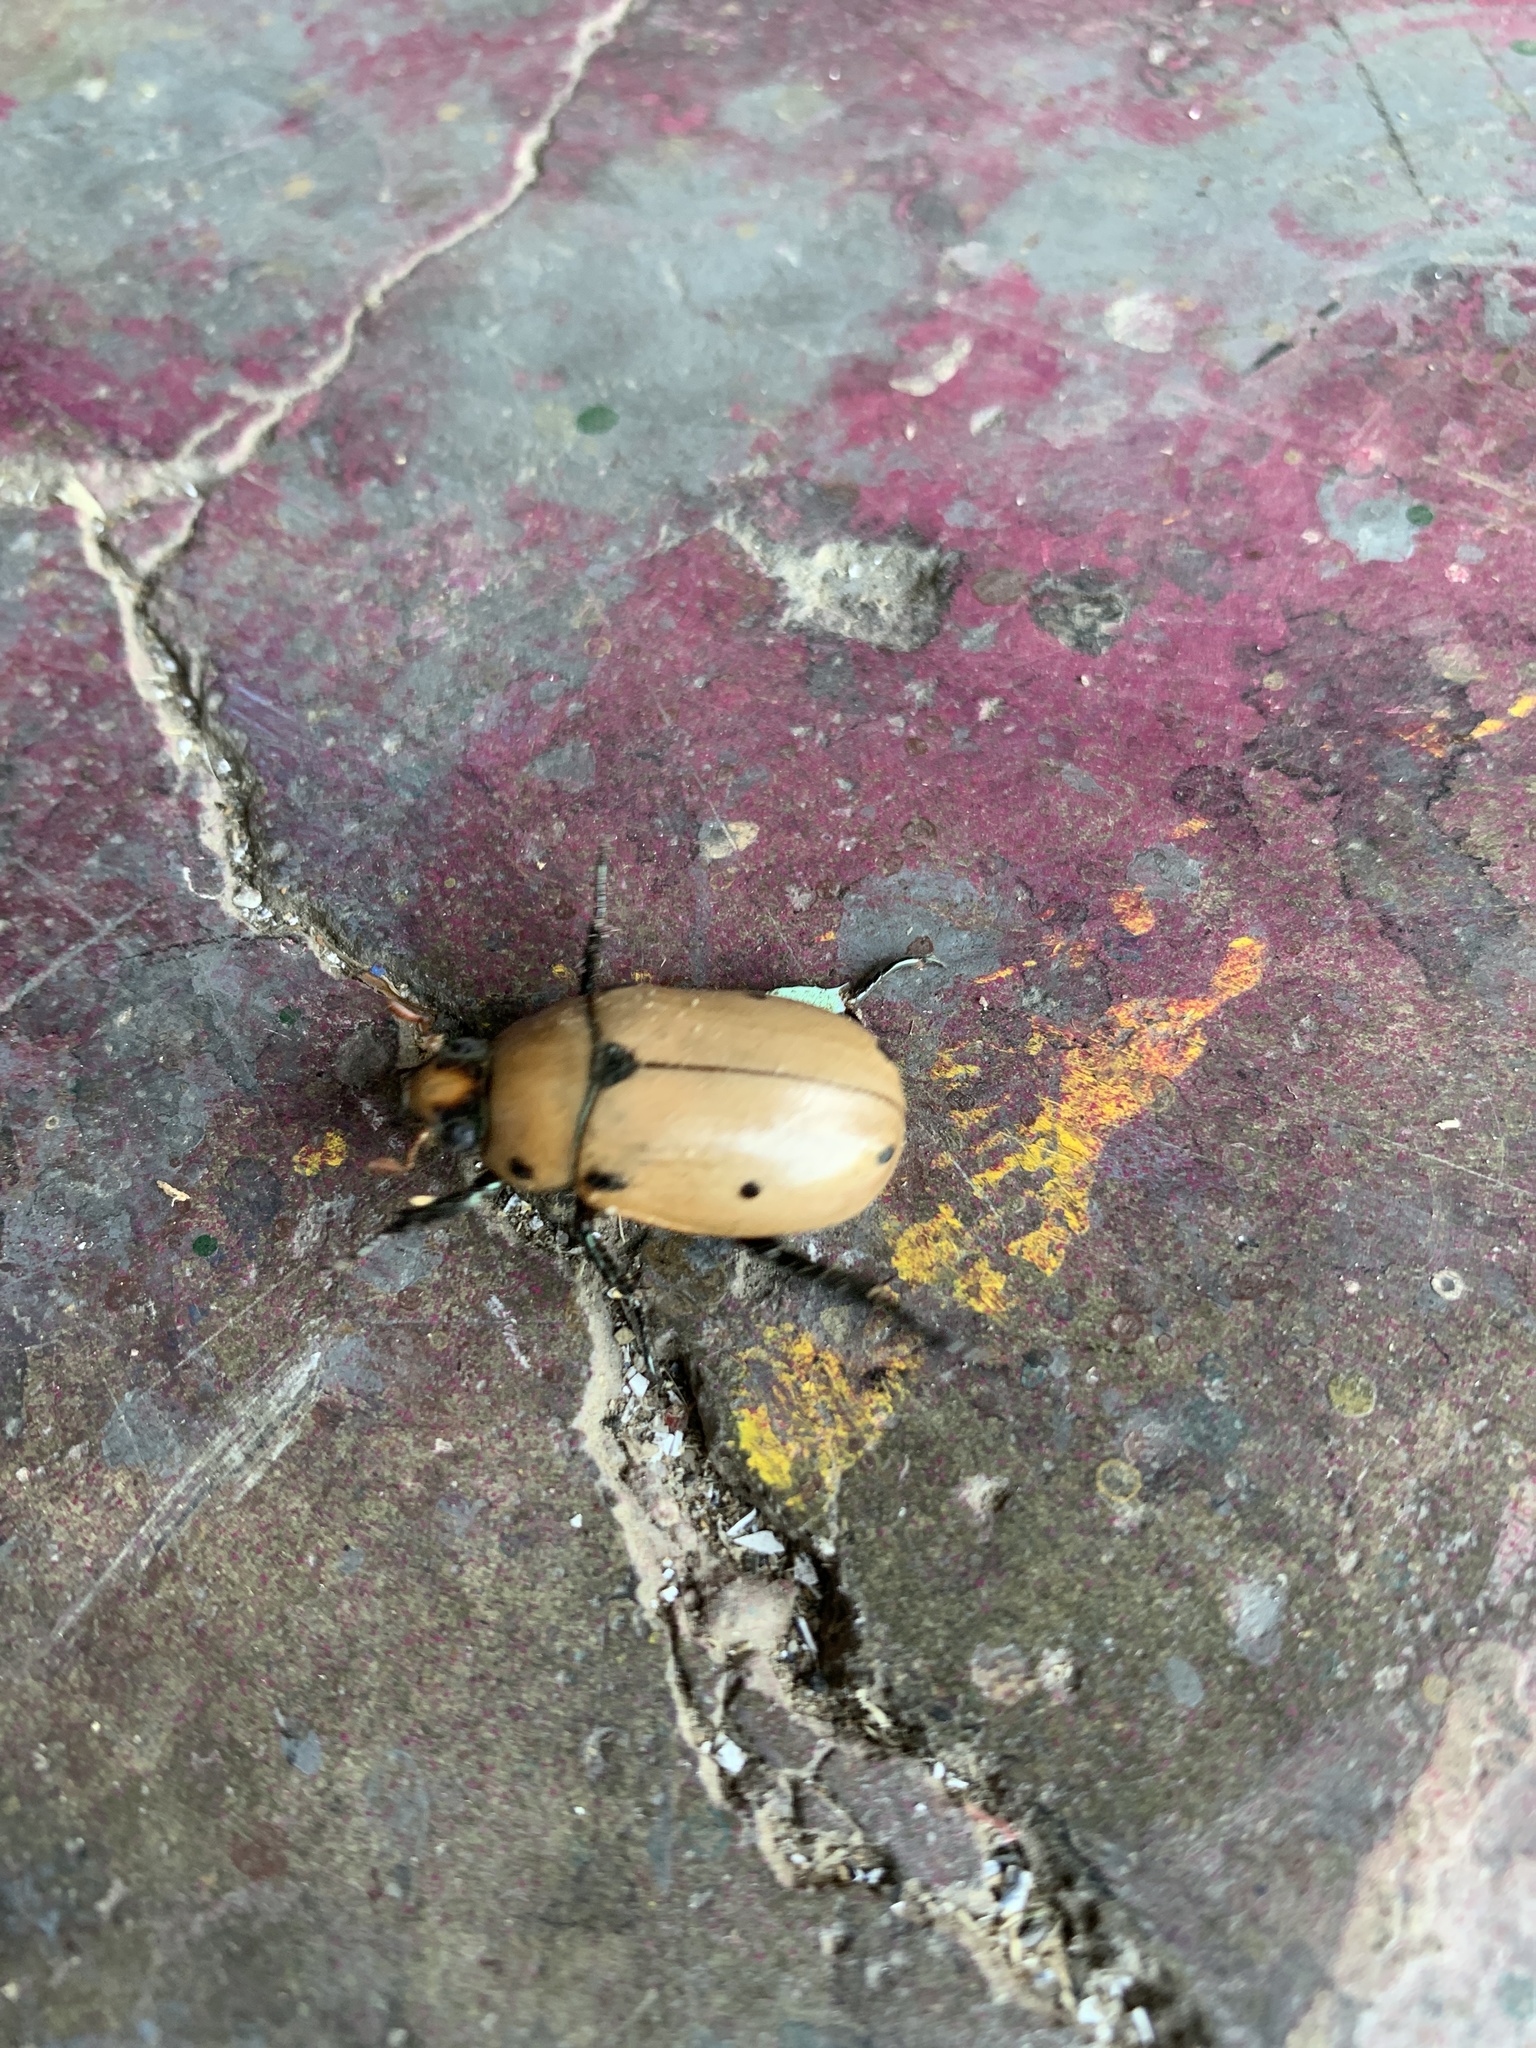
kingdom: Animalia
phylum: Arthropoda
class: Insecta
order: Coleoptera
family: Scarabaeidae
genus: Pelidnota
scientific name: Pelidnota punctata
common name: Grapevine beetle
